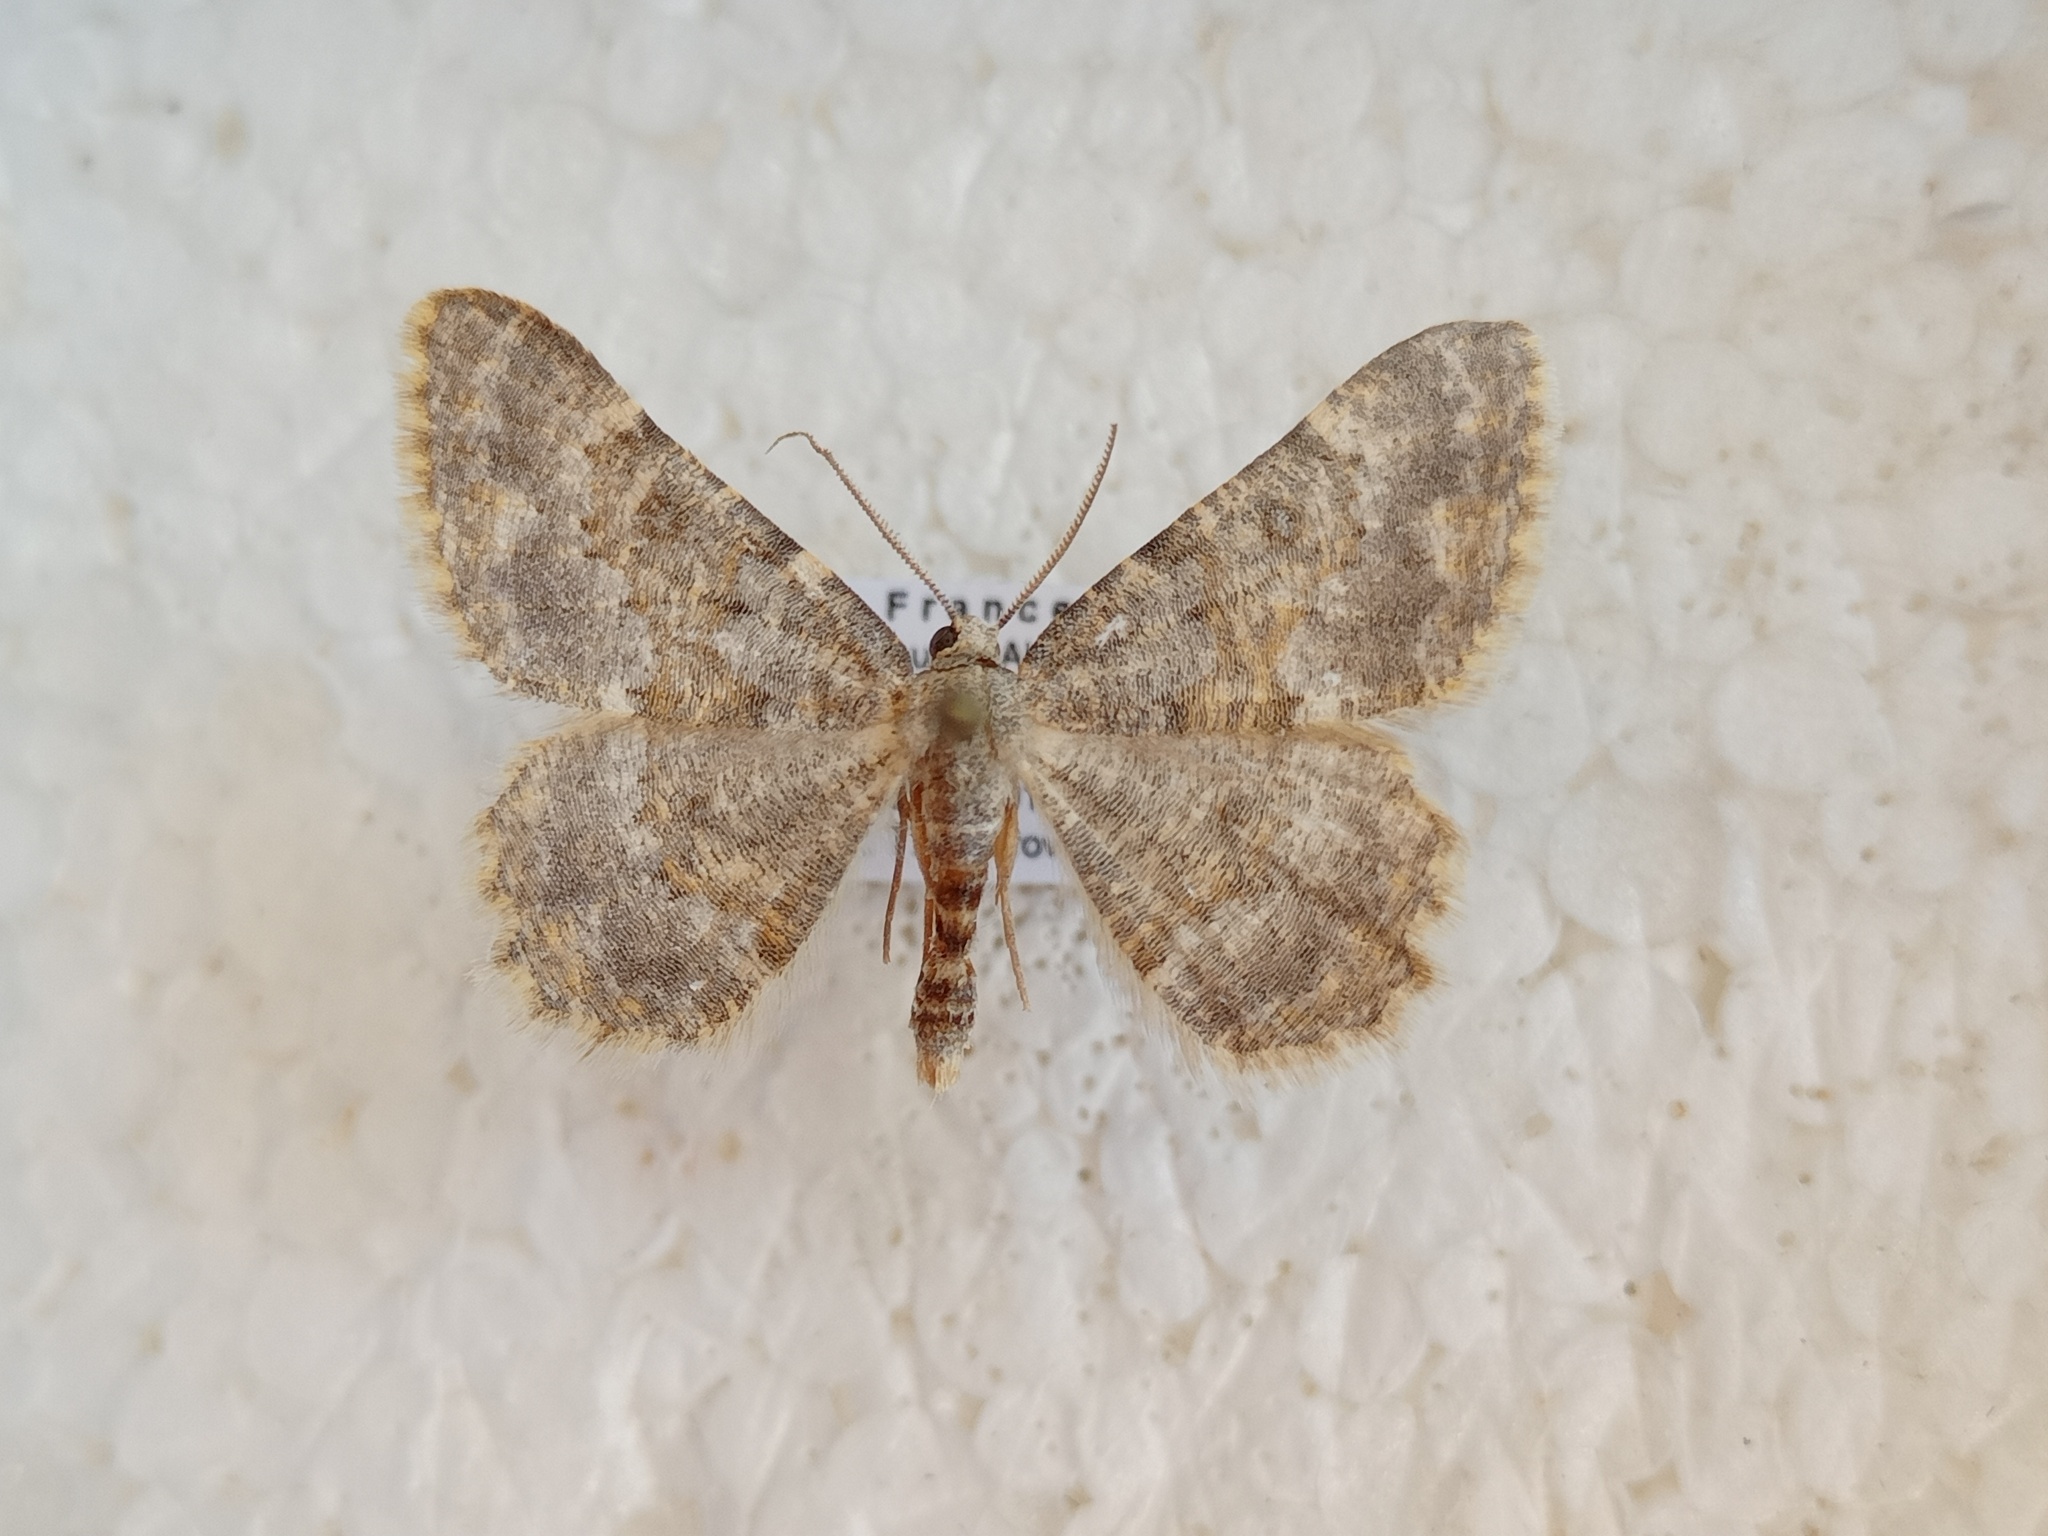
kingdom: Animalia
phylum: Arthropoda
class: Insecta
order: Lepidoptera
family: Geometridae
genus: Charissa
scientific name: Charissa mucidaria
